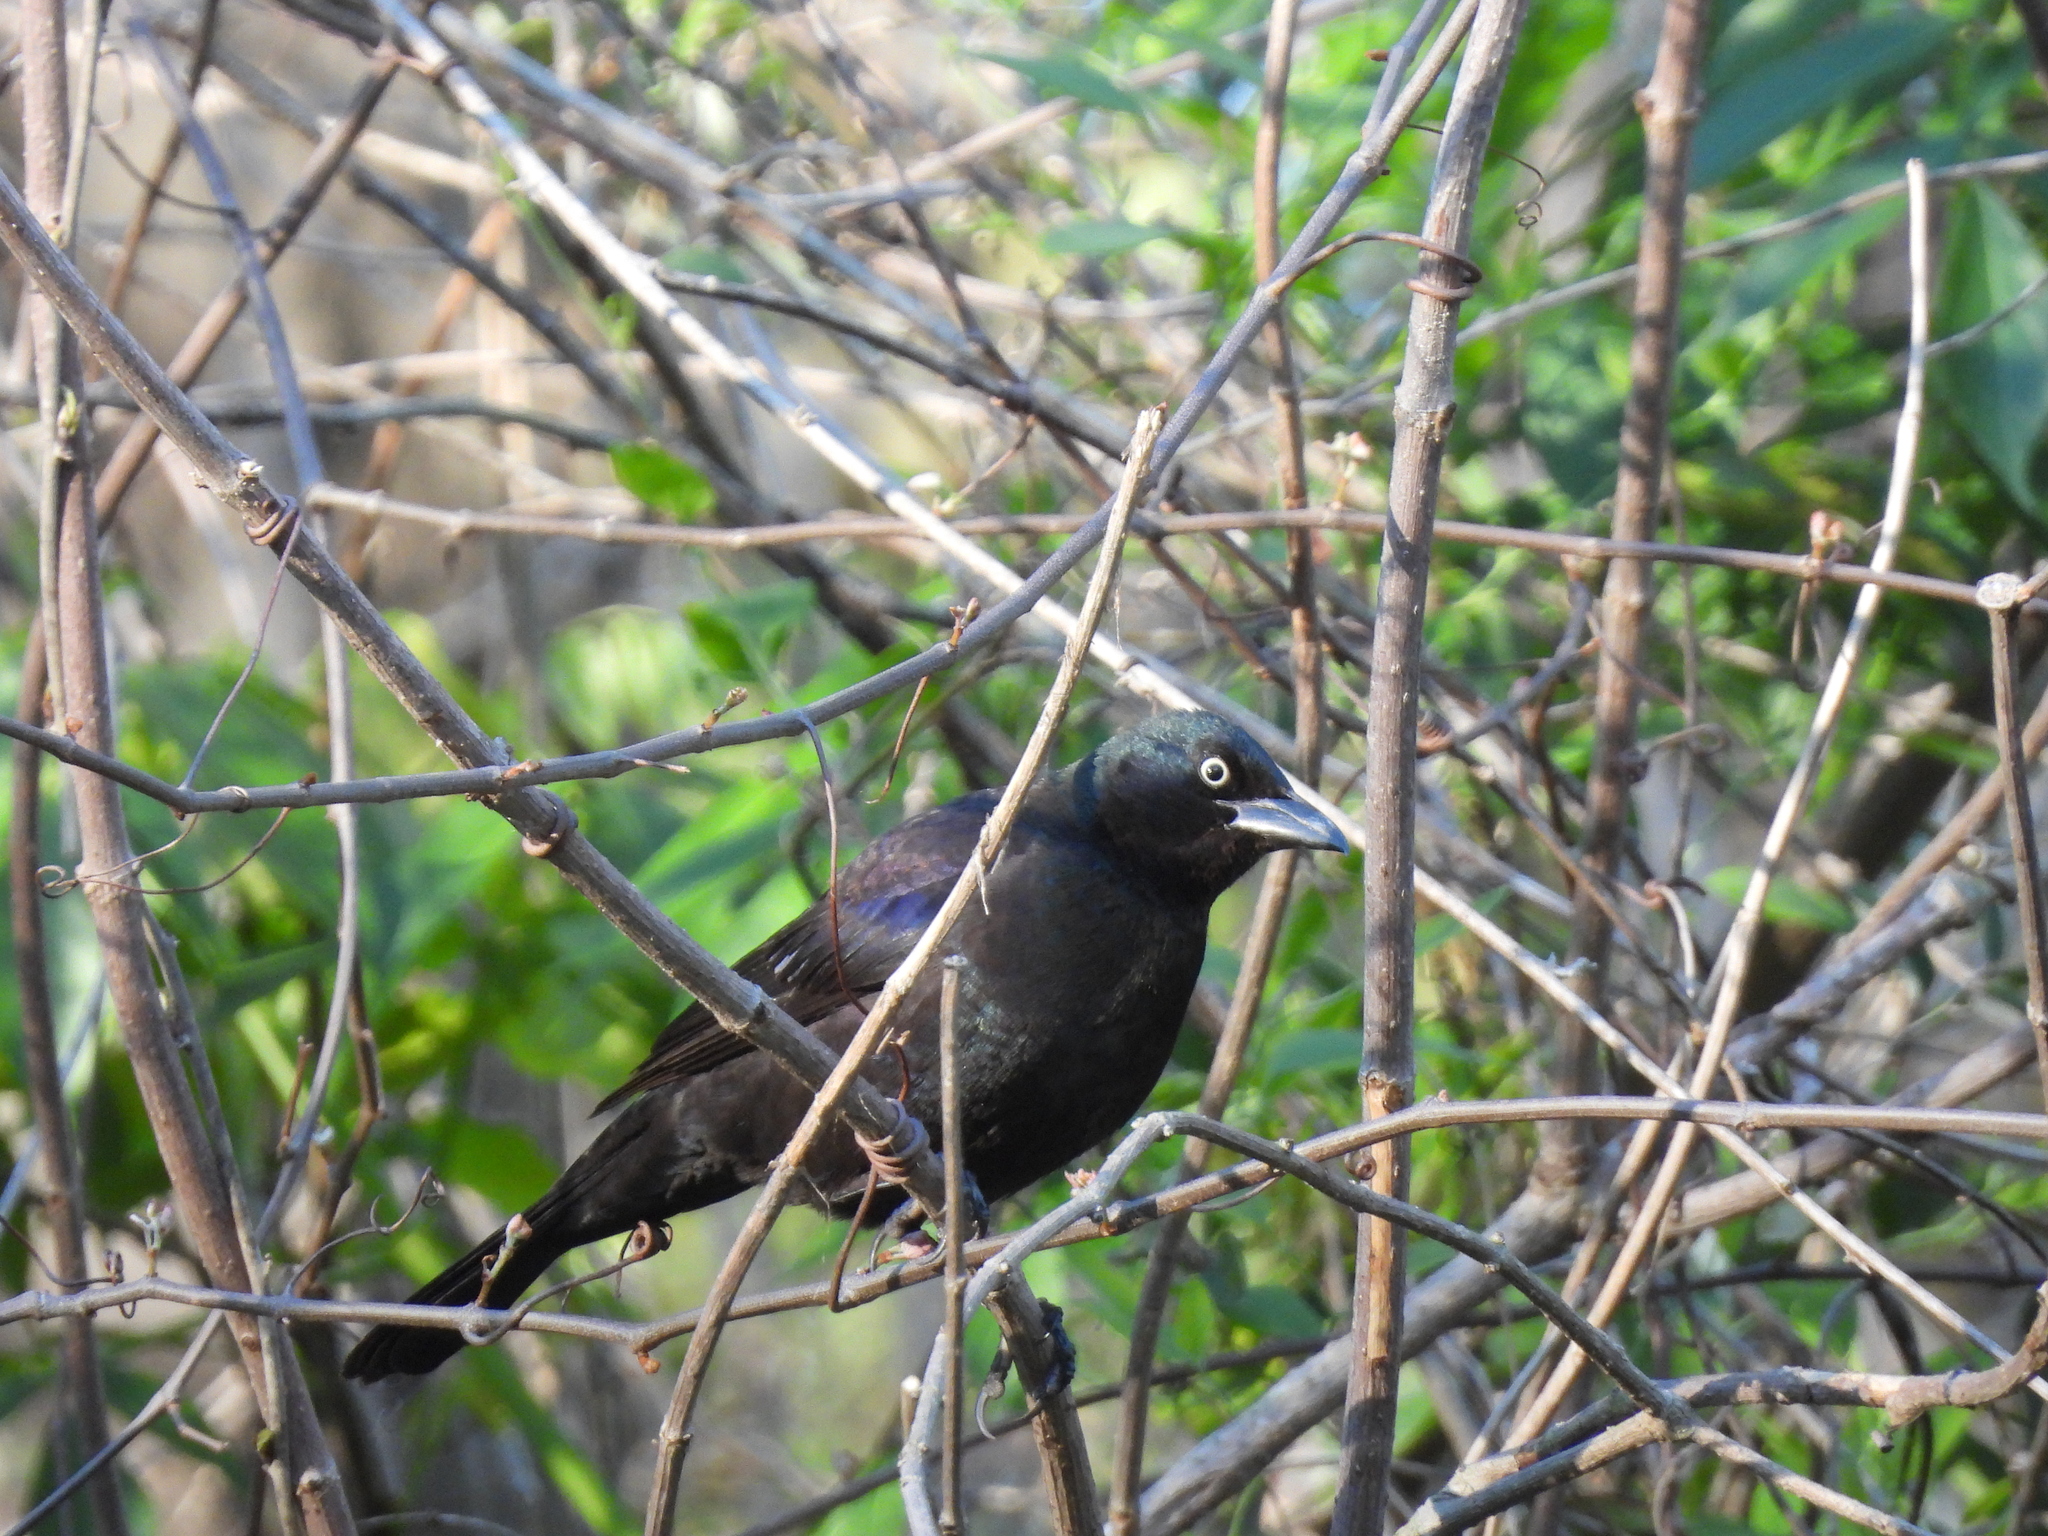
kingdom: Animalia
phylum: Chordata
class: Aves
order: Passeriformes
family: Icteridae
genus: Quiscalus
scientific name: Quiscalus quiscula
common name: Common grackle
